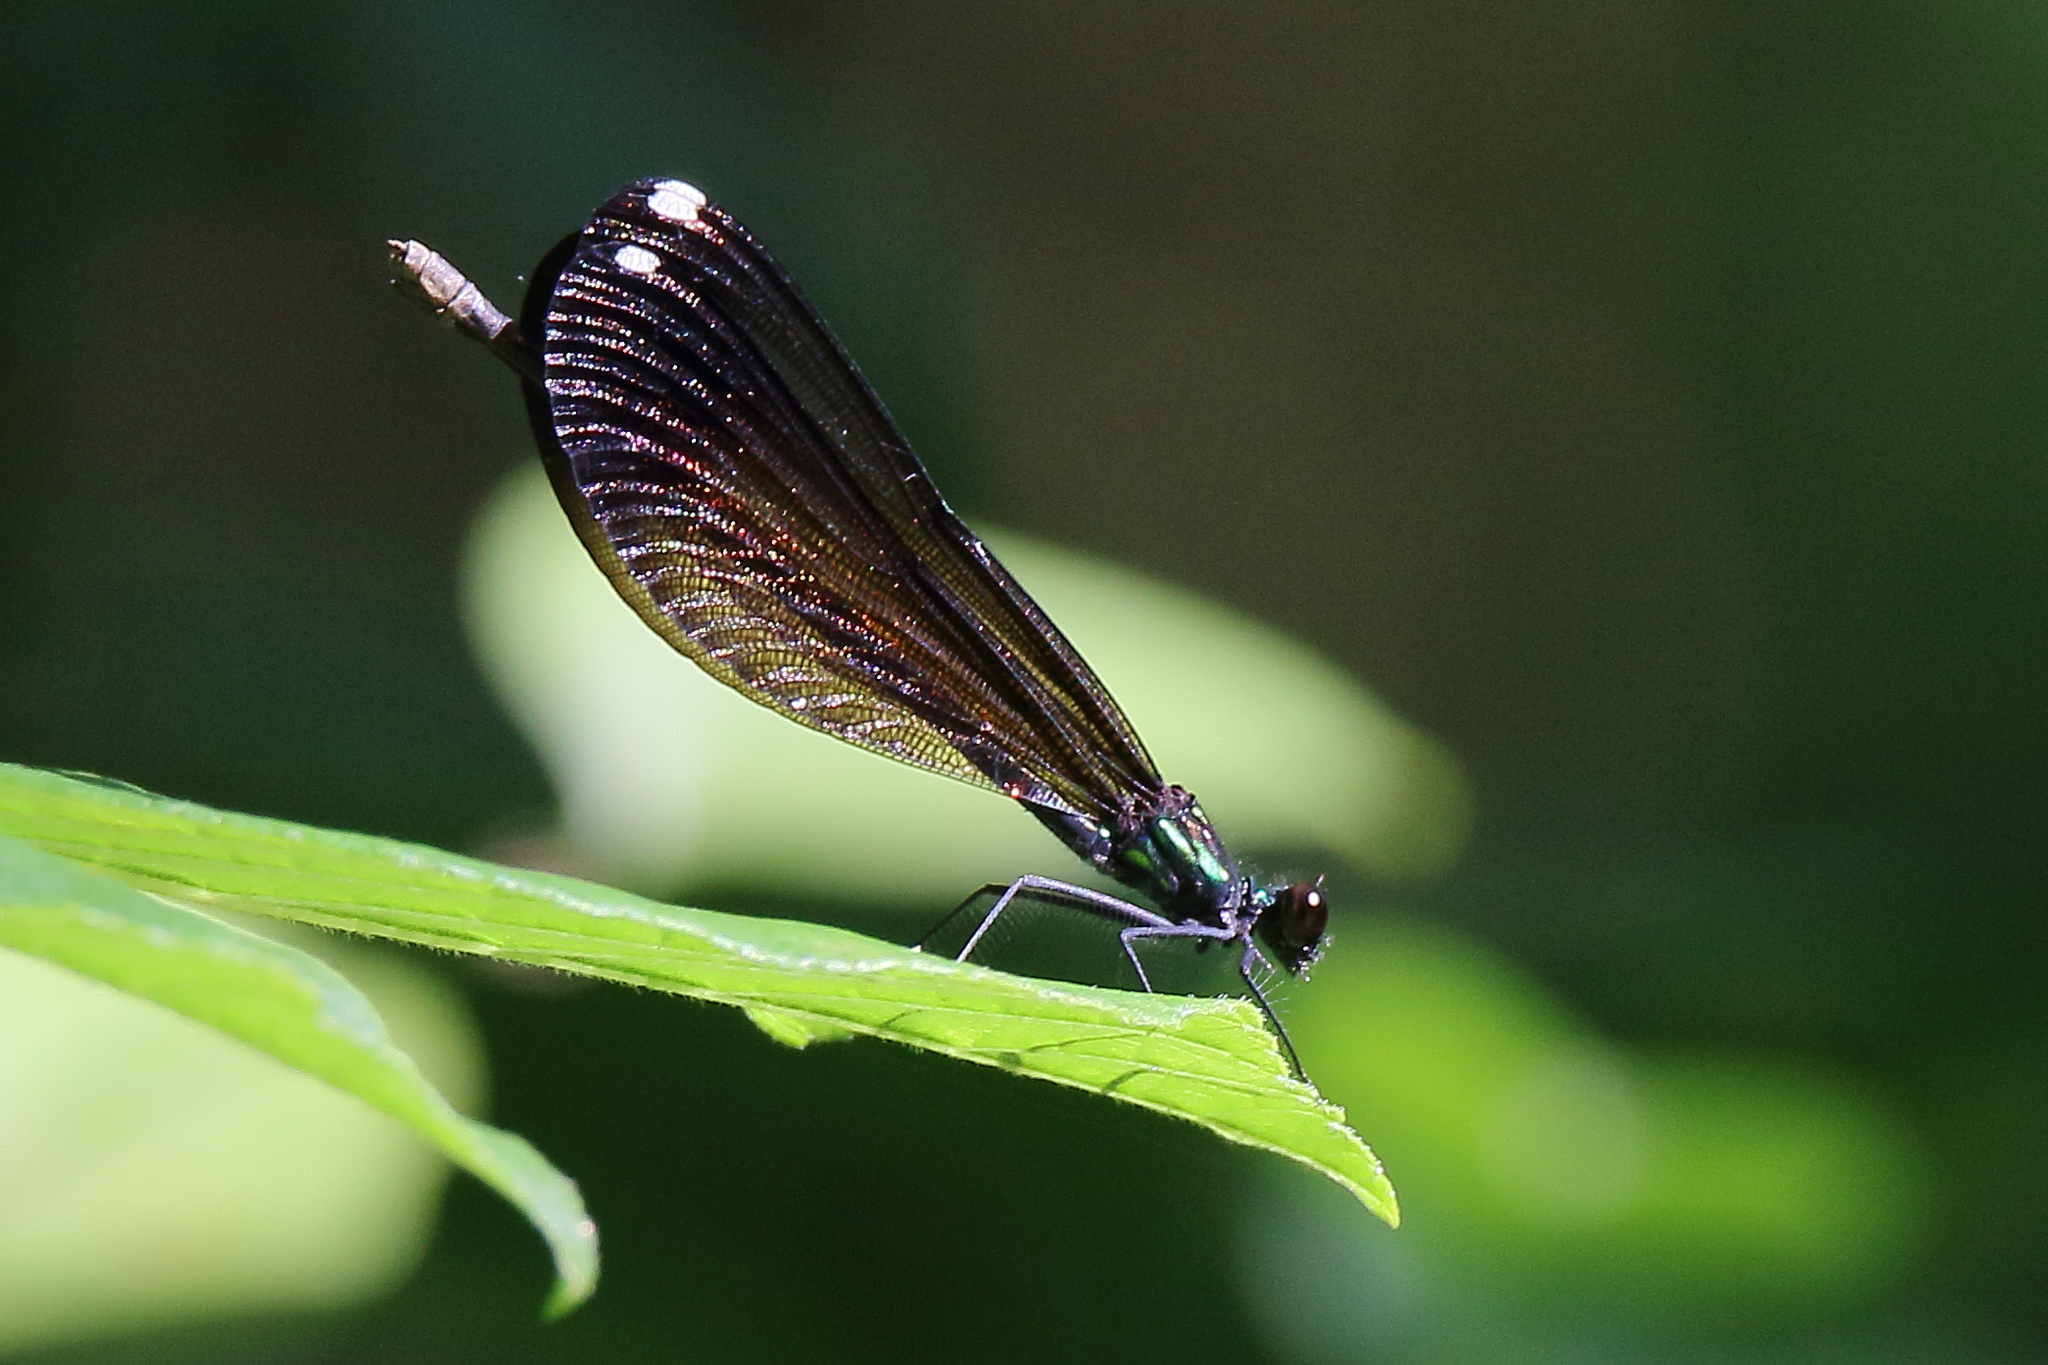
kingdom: Animalia
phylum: Arthropoda
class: Insecta
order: Odonata
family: Calopterygidae
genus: Calopteryx
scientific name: Calopteryx maculata
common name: Ebony jewelwing
